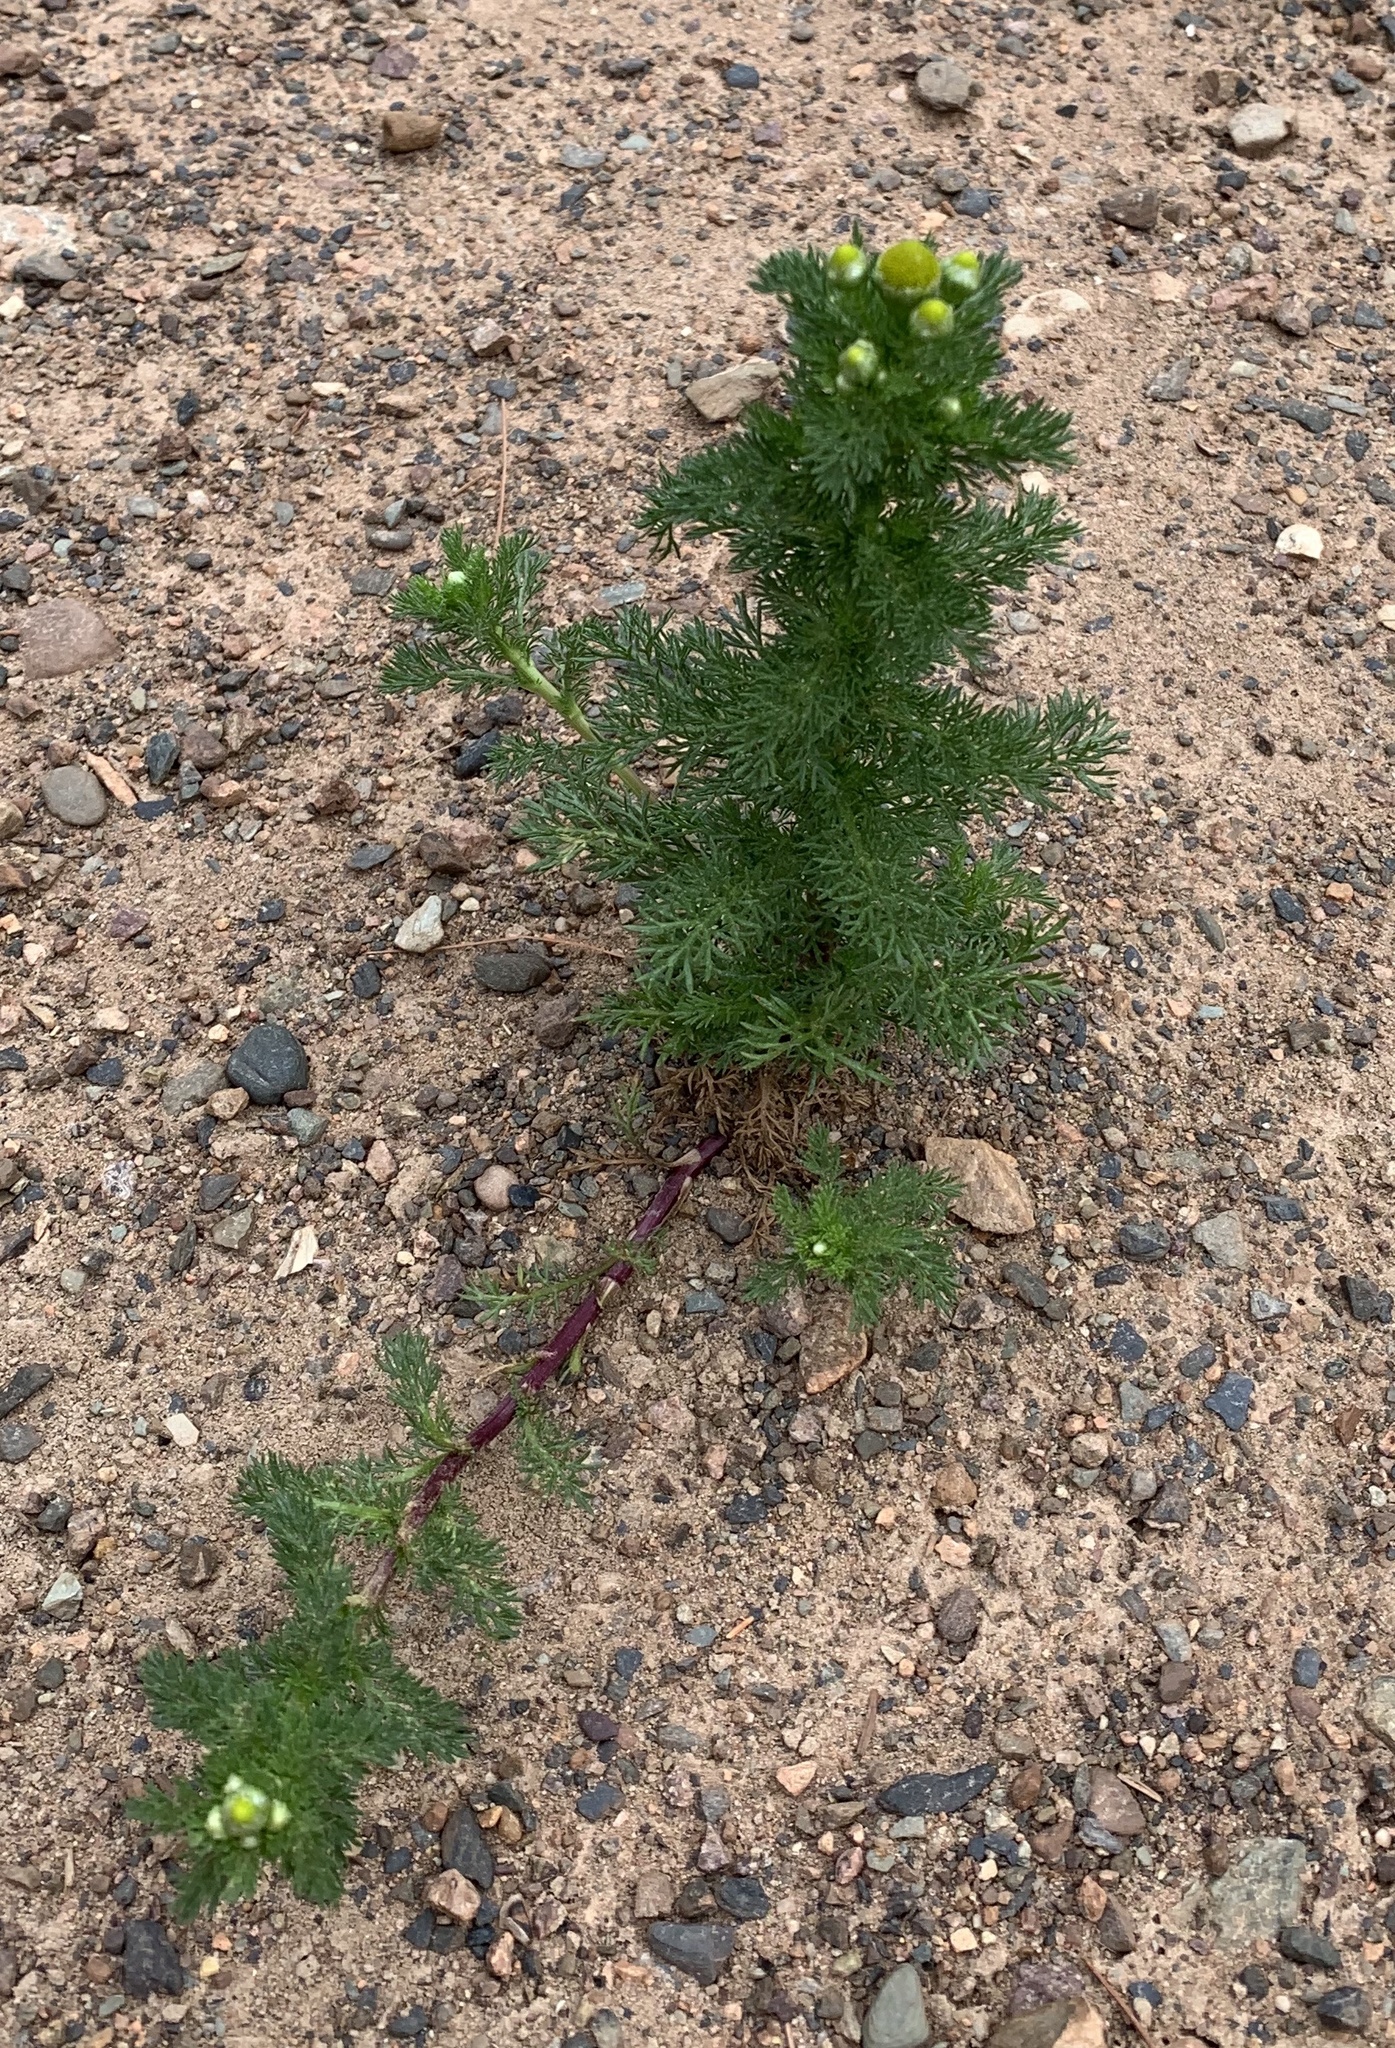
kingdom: Plantae
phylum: Tracheophyta
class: Magnoliopsida
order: Asterales
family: Asteraceae
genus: Matricaria
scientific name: Matricaria discoidea
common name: Disc mayweed
